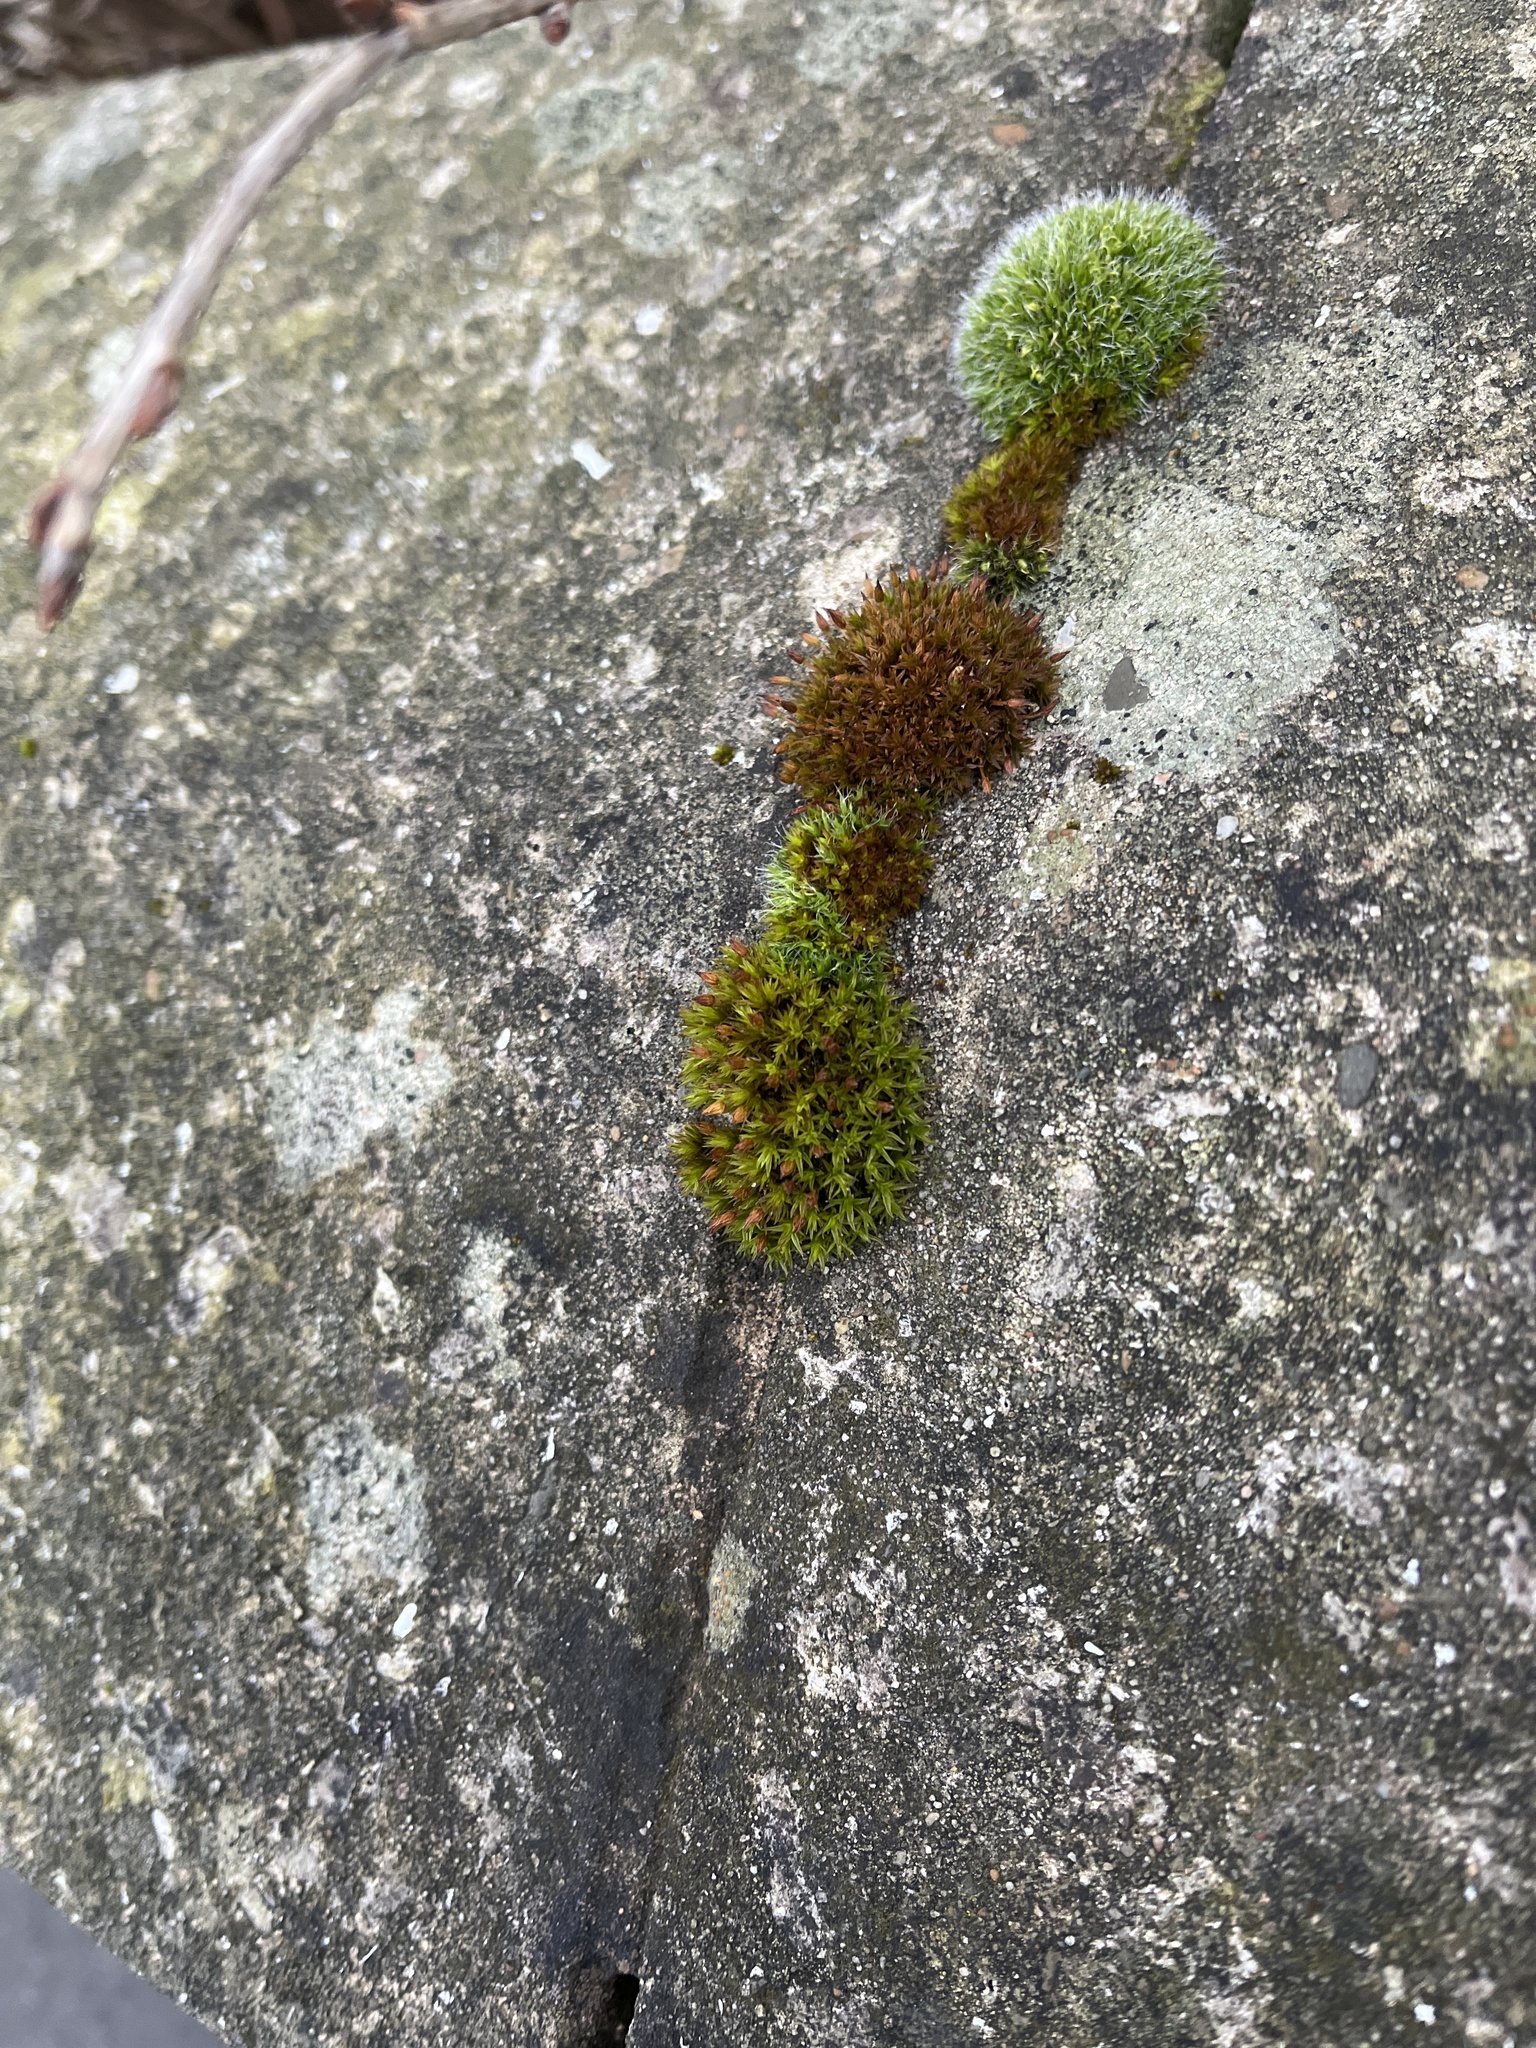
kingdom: Plantae
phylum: Bryophyta
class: Bryopsida
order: Orthotrichales
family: Orthotrichaceae
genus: Orthotrichum
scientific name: Orthotrichum anomalum
